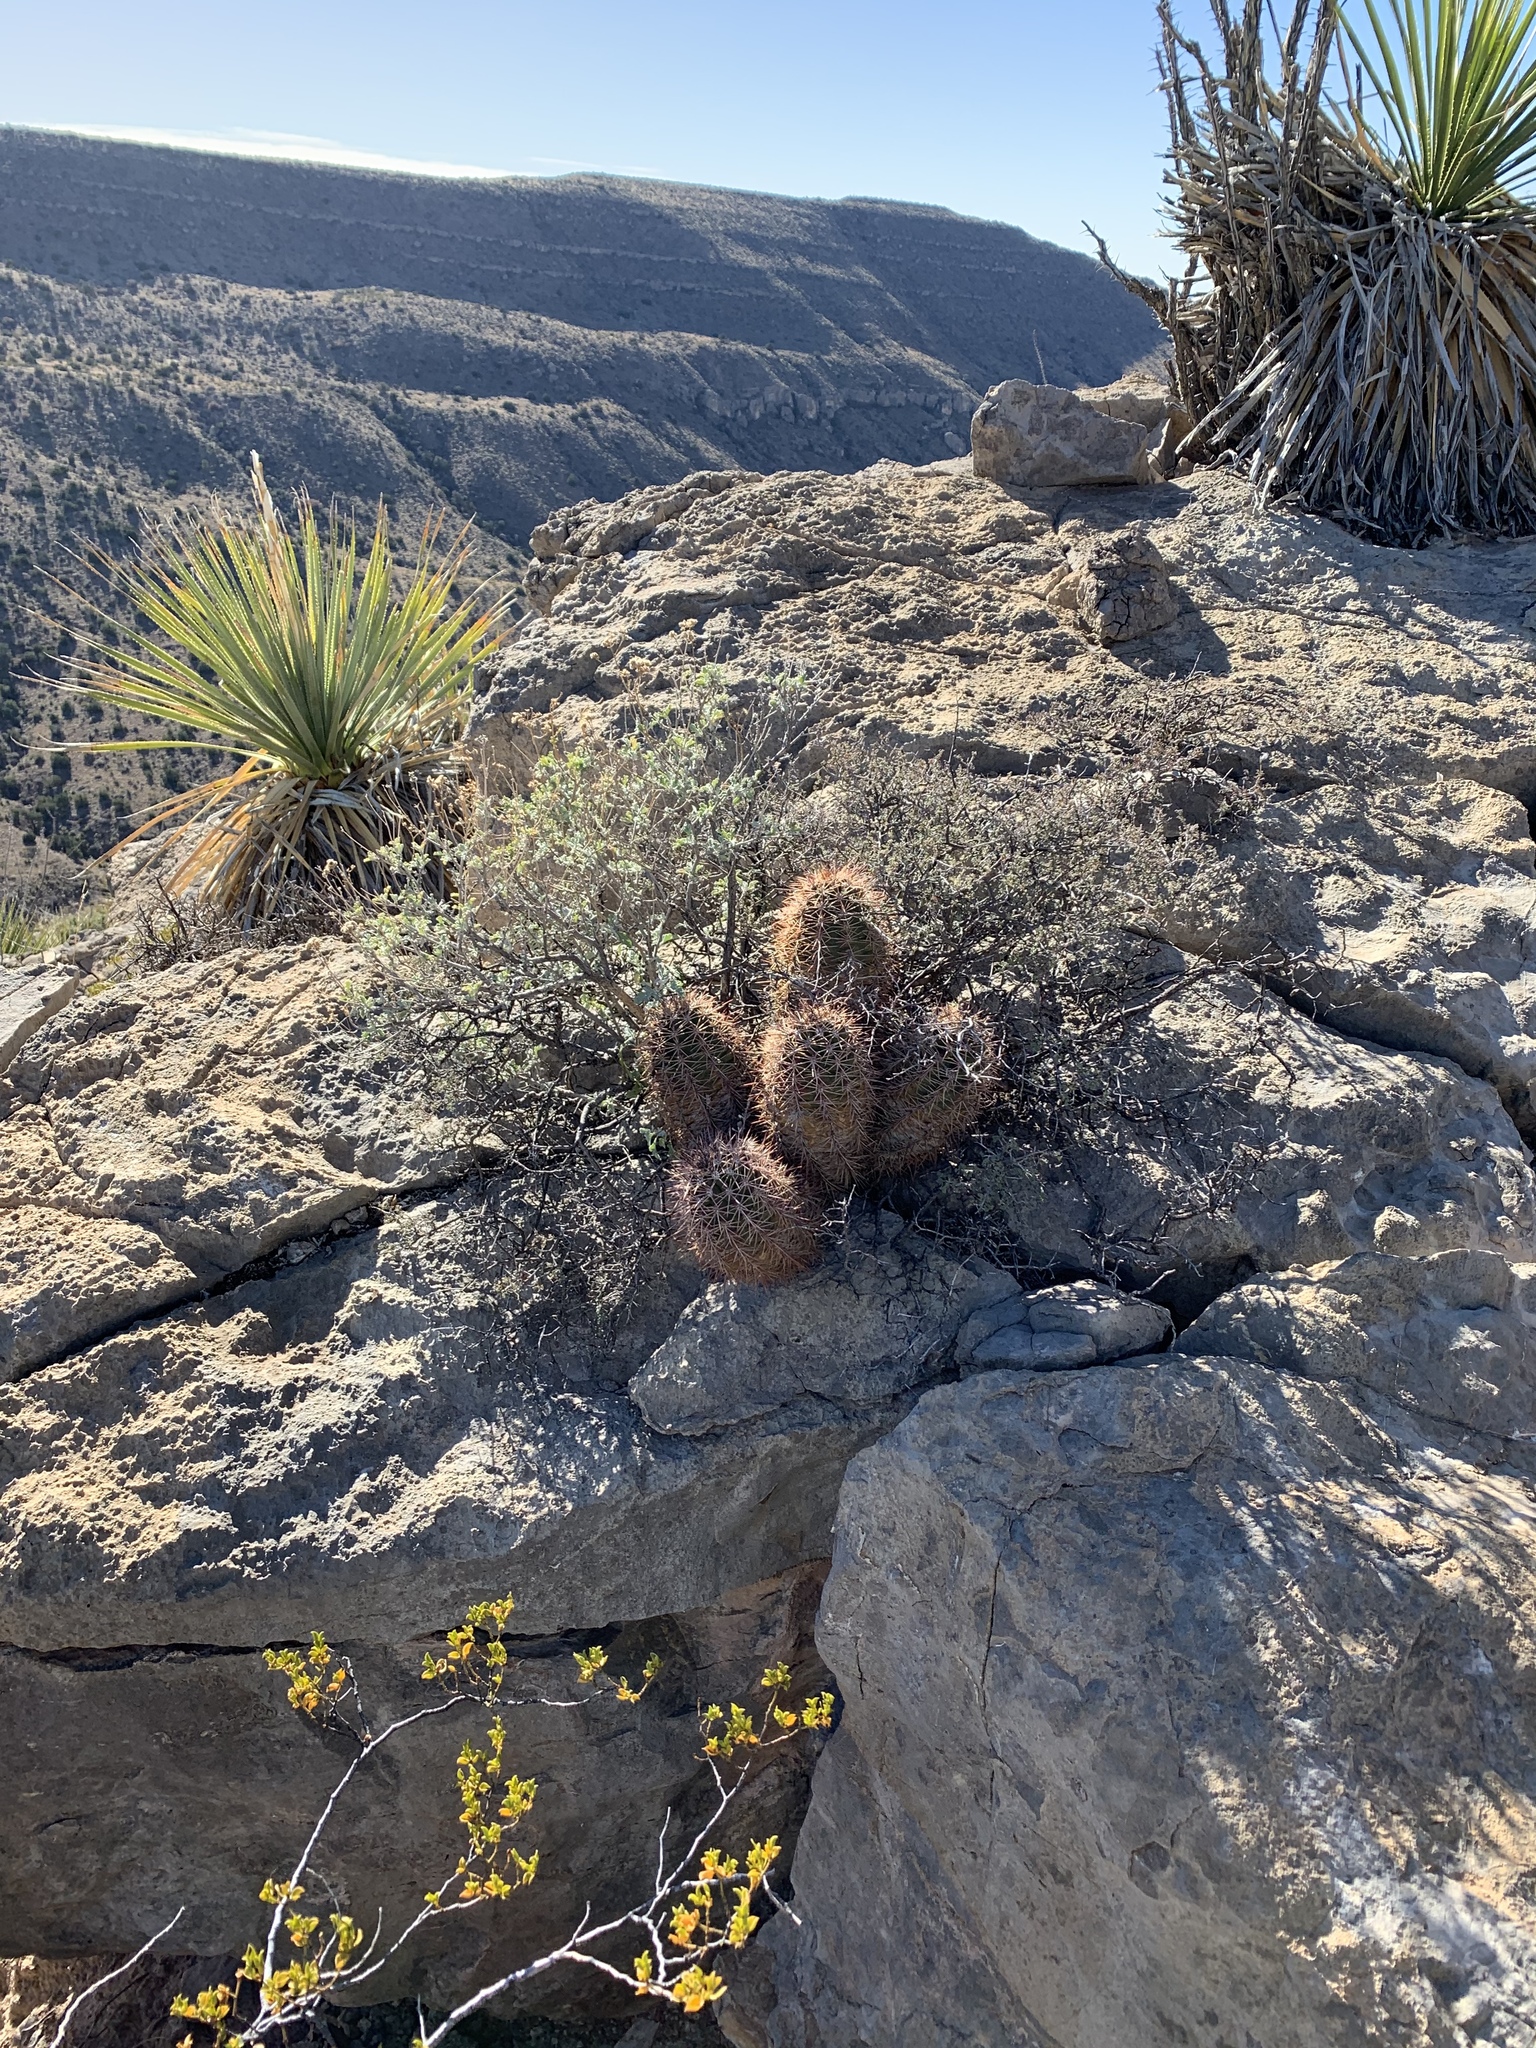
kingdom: Plantae
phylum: Tracheophyta
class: Magnoliopsida
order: Caryophyllales
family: Cactaceae
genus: Echinocereus
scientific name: Echinocereus coccineus
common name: Scarlet hedgehog cactus
